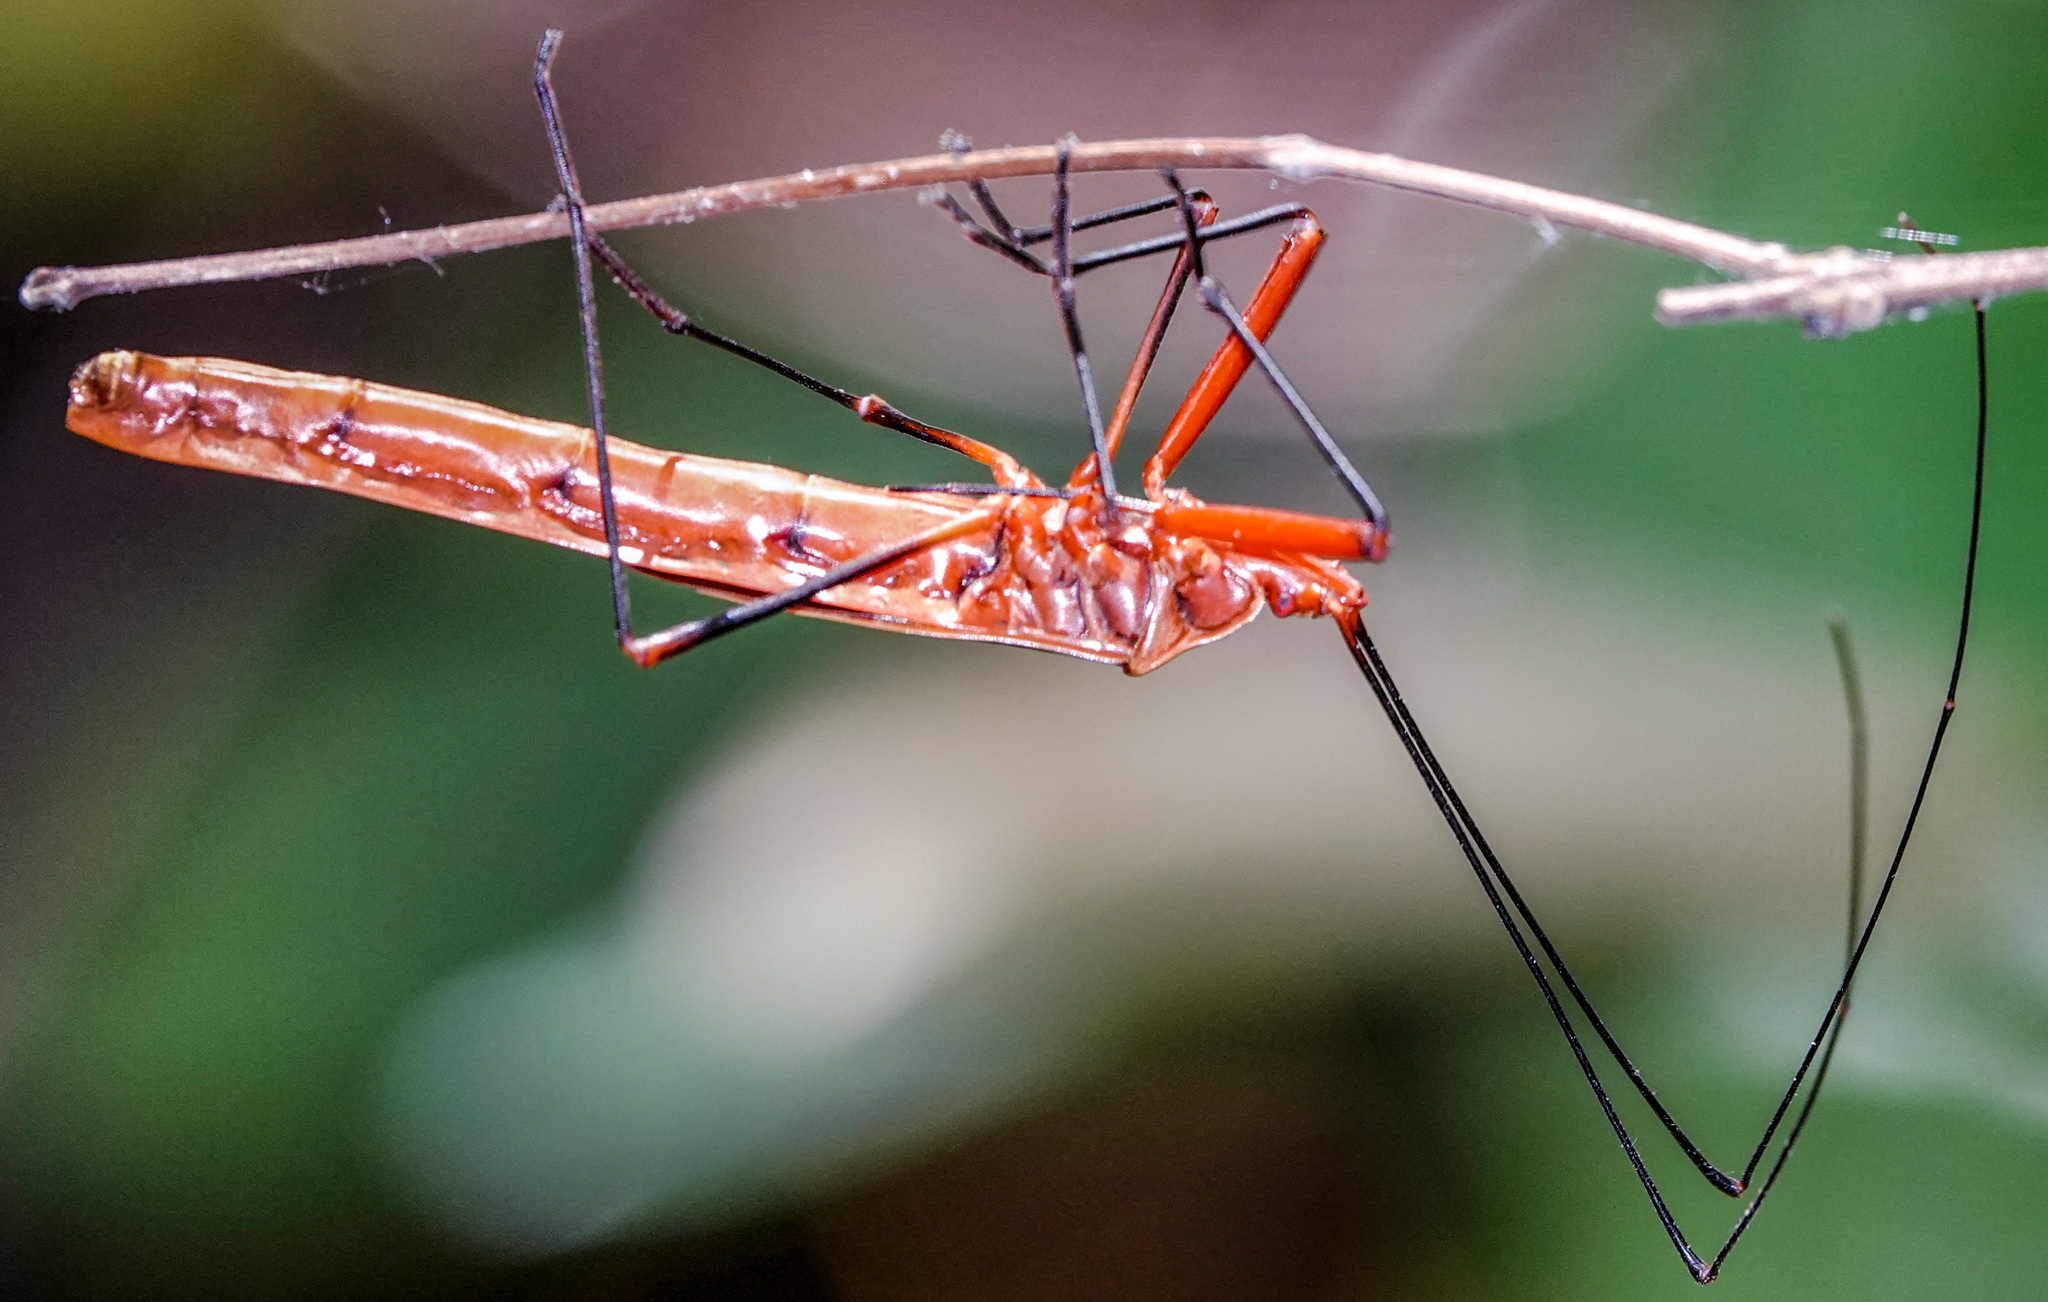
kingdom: Animalia
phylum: Arthropoda
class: Insecta
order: Hemiptera
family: Largidae
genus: Macrocheraia
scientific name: Macrocheraia grandis
